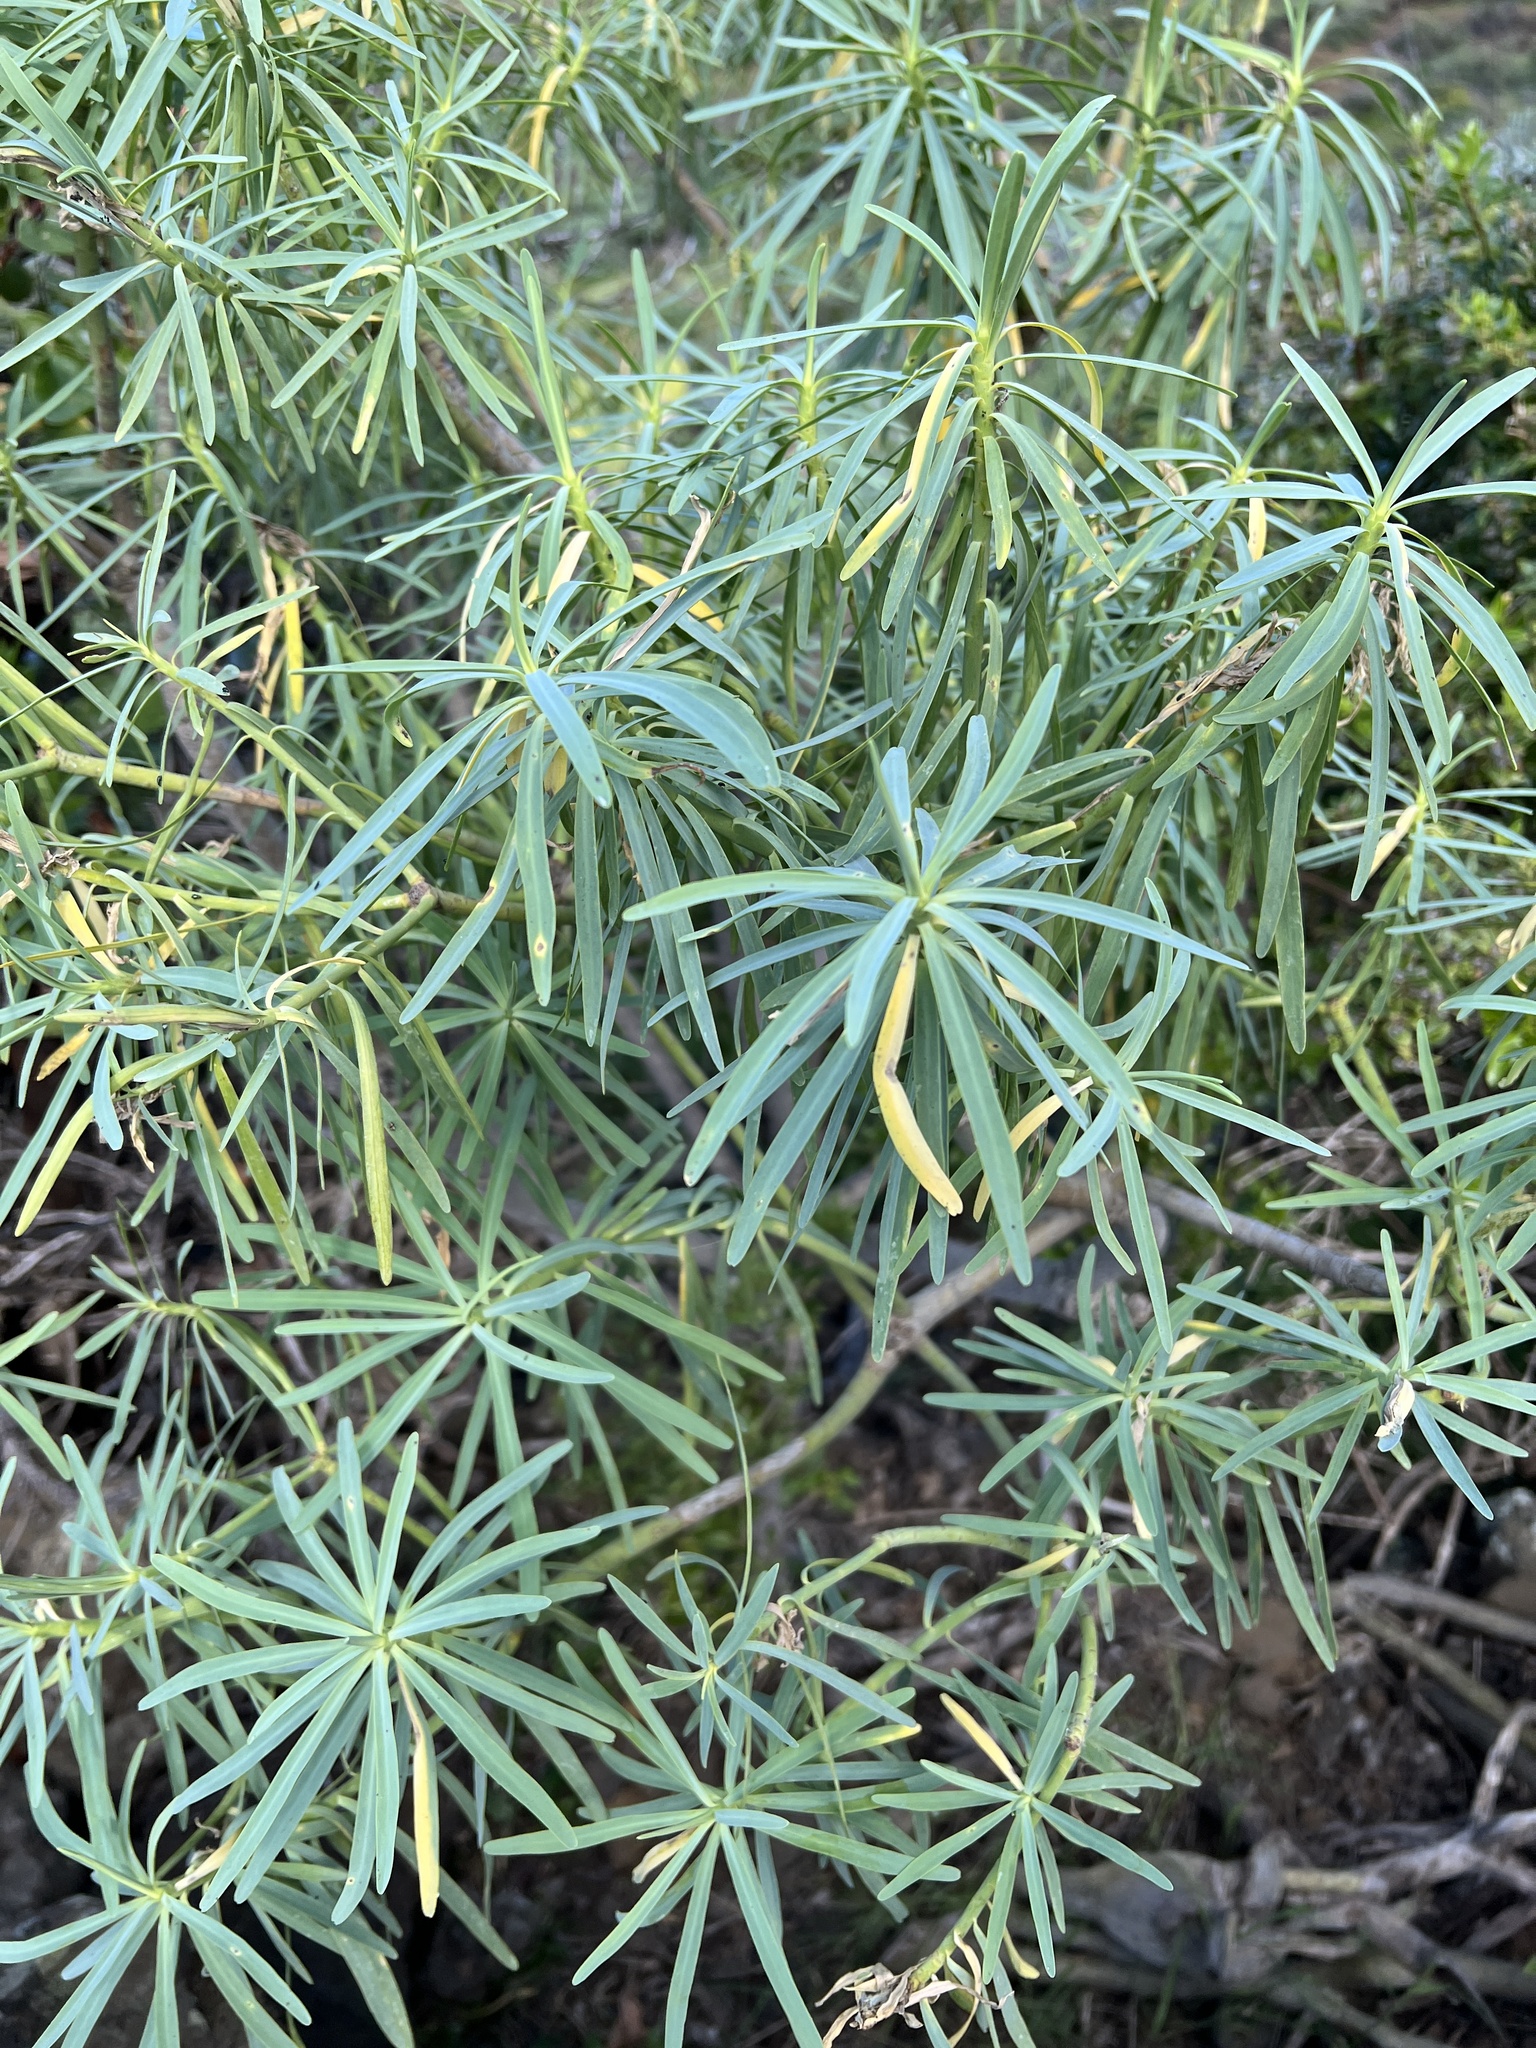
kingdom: Plantae
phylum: Tracheophyta
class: Magnoliopsida
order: Malpighiales
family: Euphorbiaceae
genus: Euphorbia
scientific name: Euphorbia lamarckii
